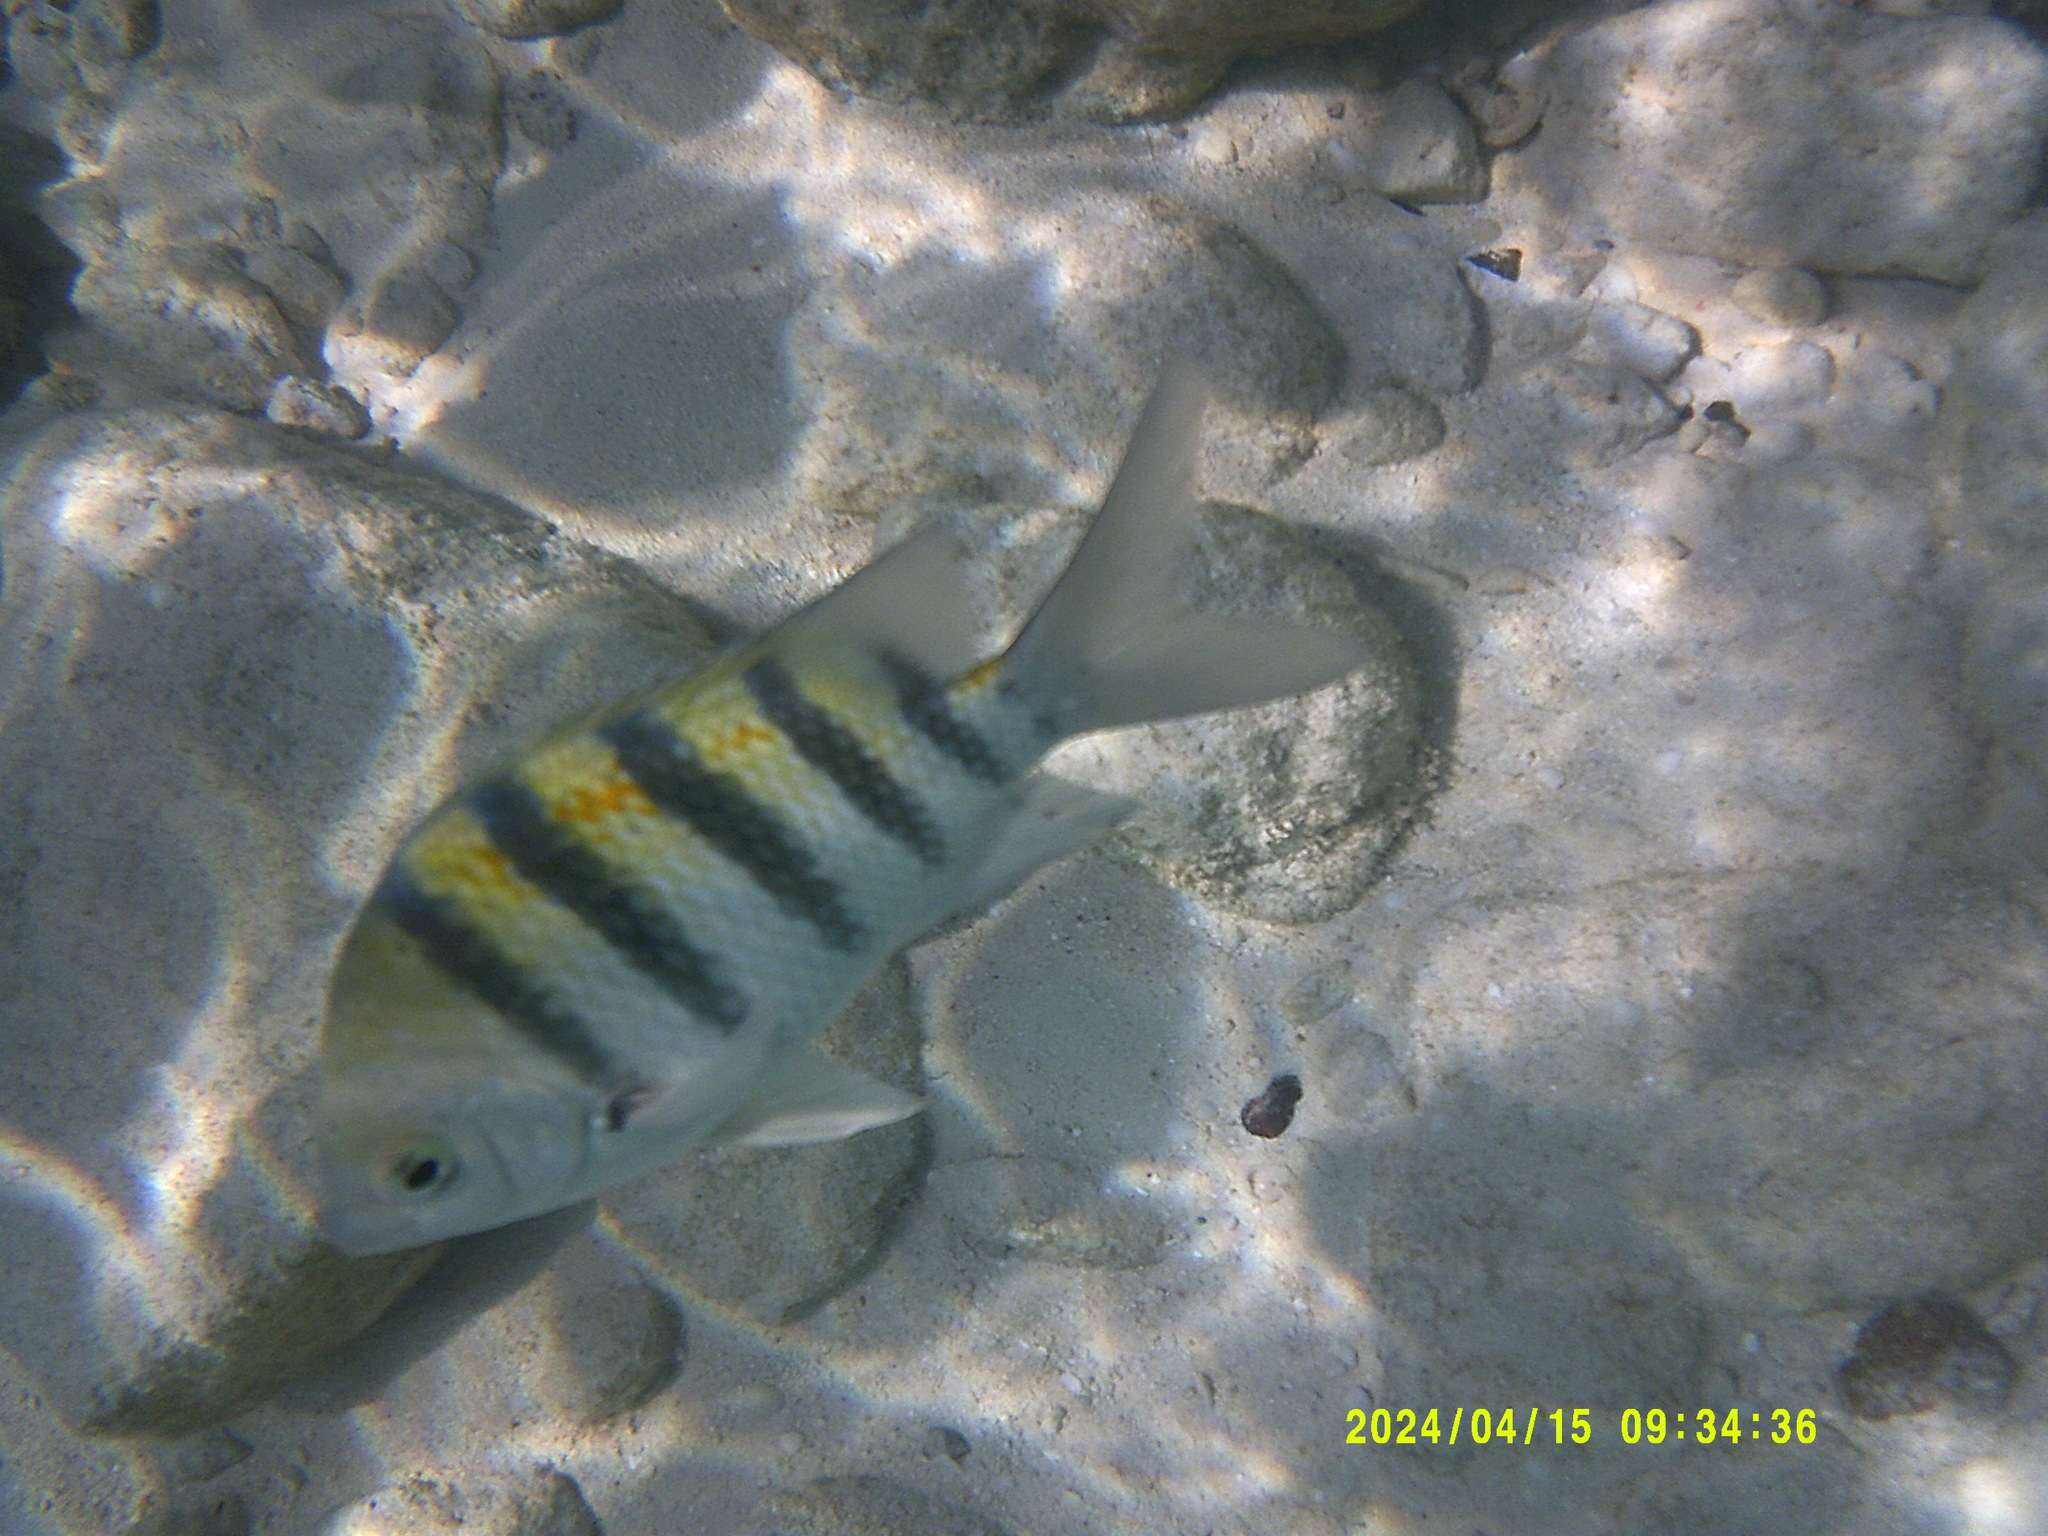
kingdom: Animalia
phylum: Chordata
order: Perciformes
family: Pomacentridae
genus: Abudefduf
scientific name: Abudefduf saxatilis
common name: Sergeant major
